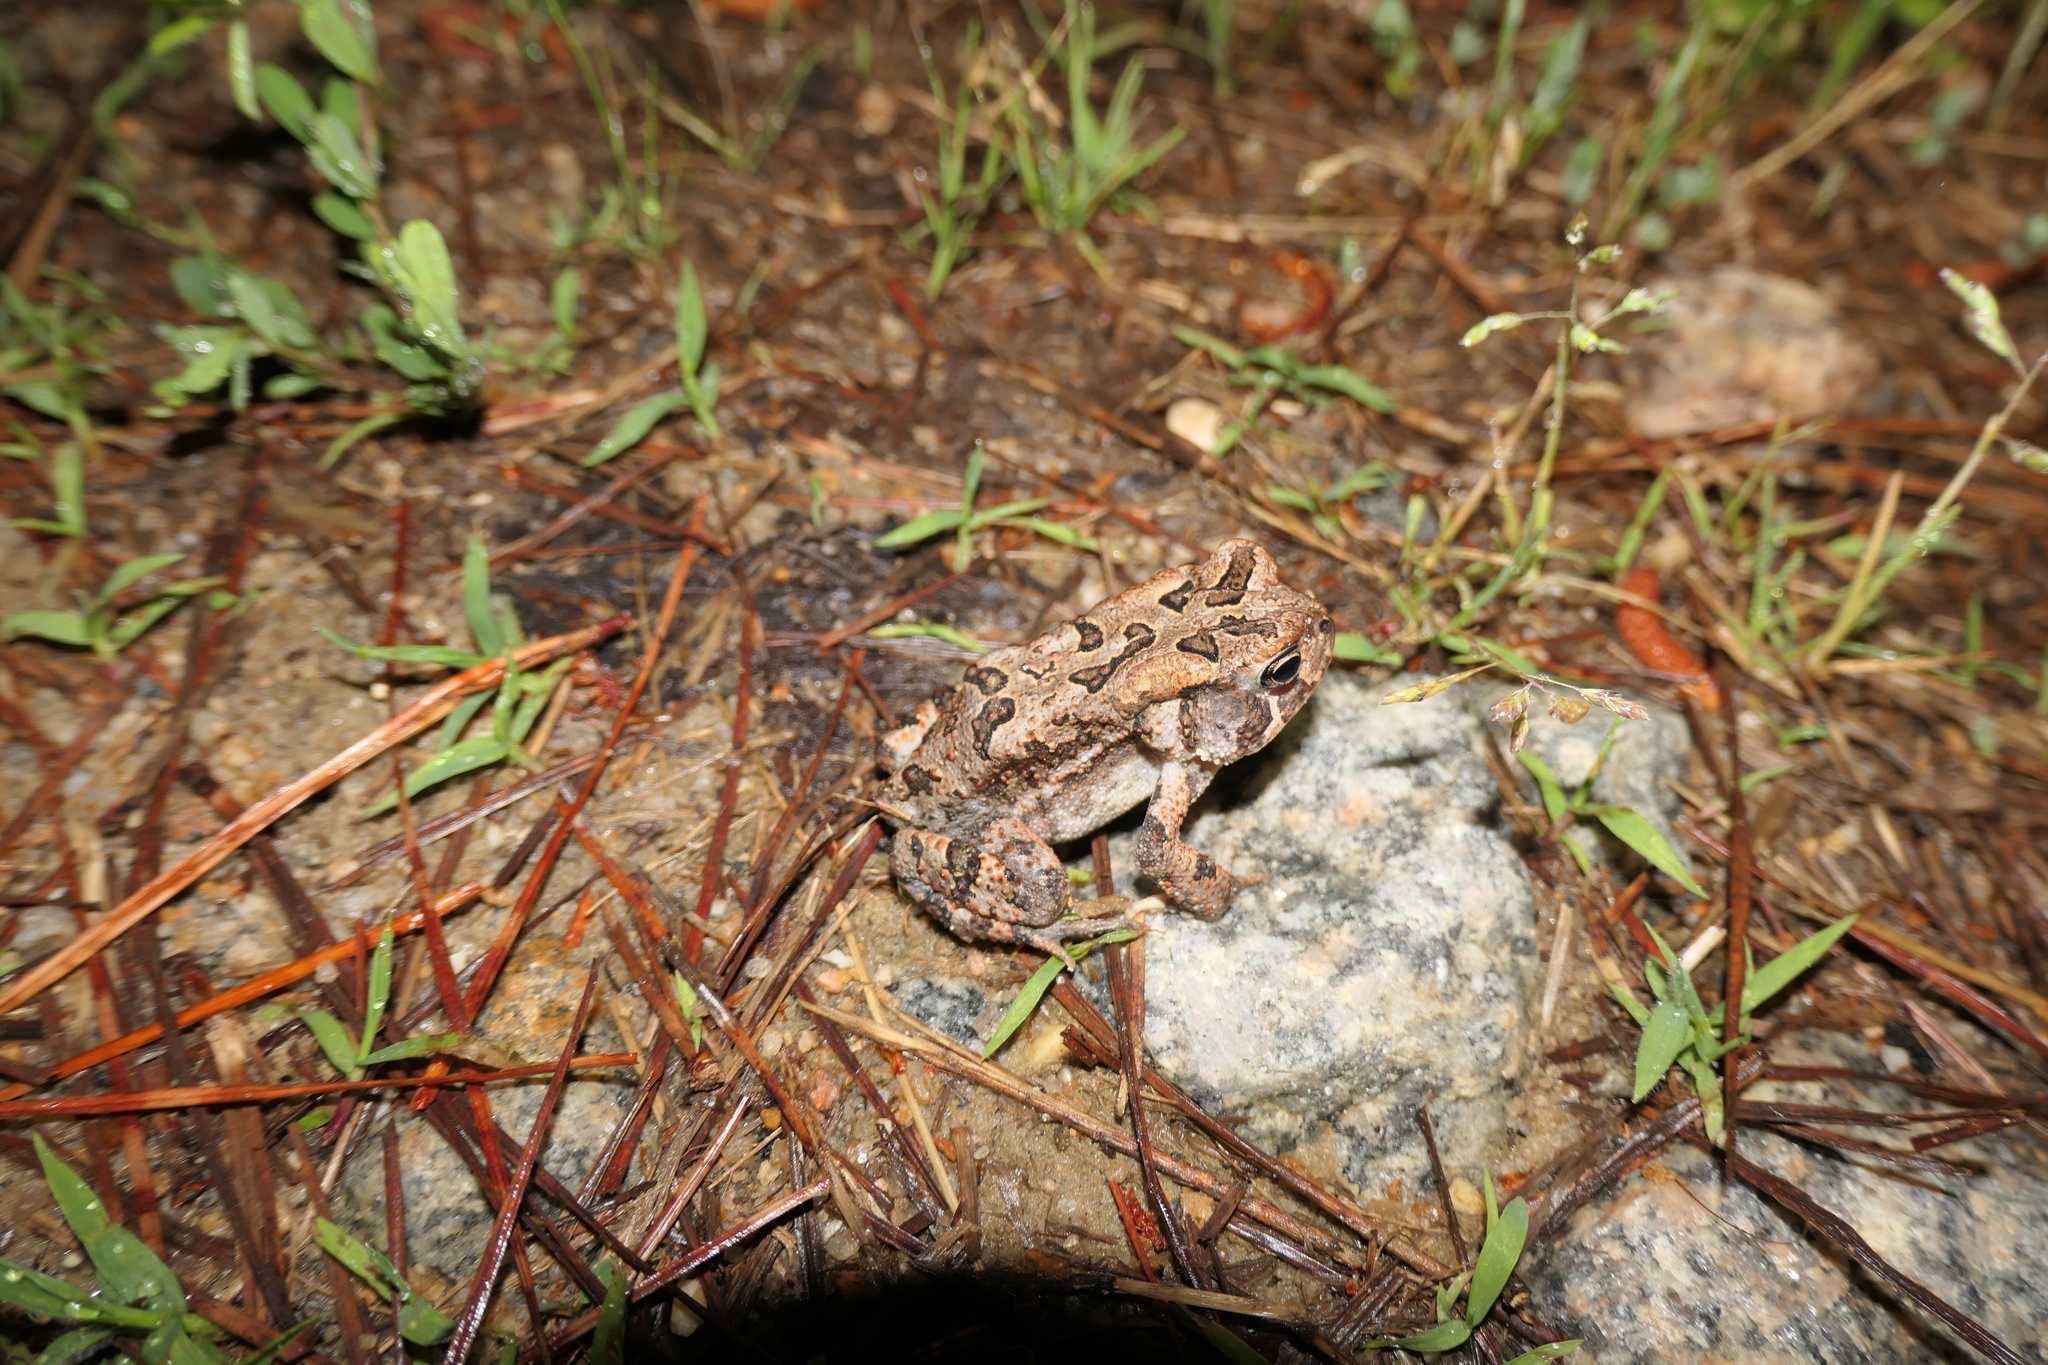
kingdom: Animalia
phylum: Chordata
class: Amphibia
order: Anura
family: Bufonidae
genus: Anaxyrus
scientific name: Anaxyrus terrestris
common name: Southern toad
